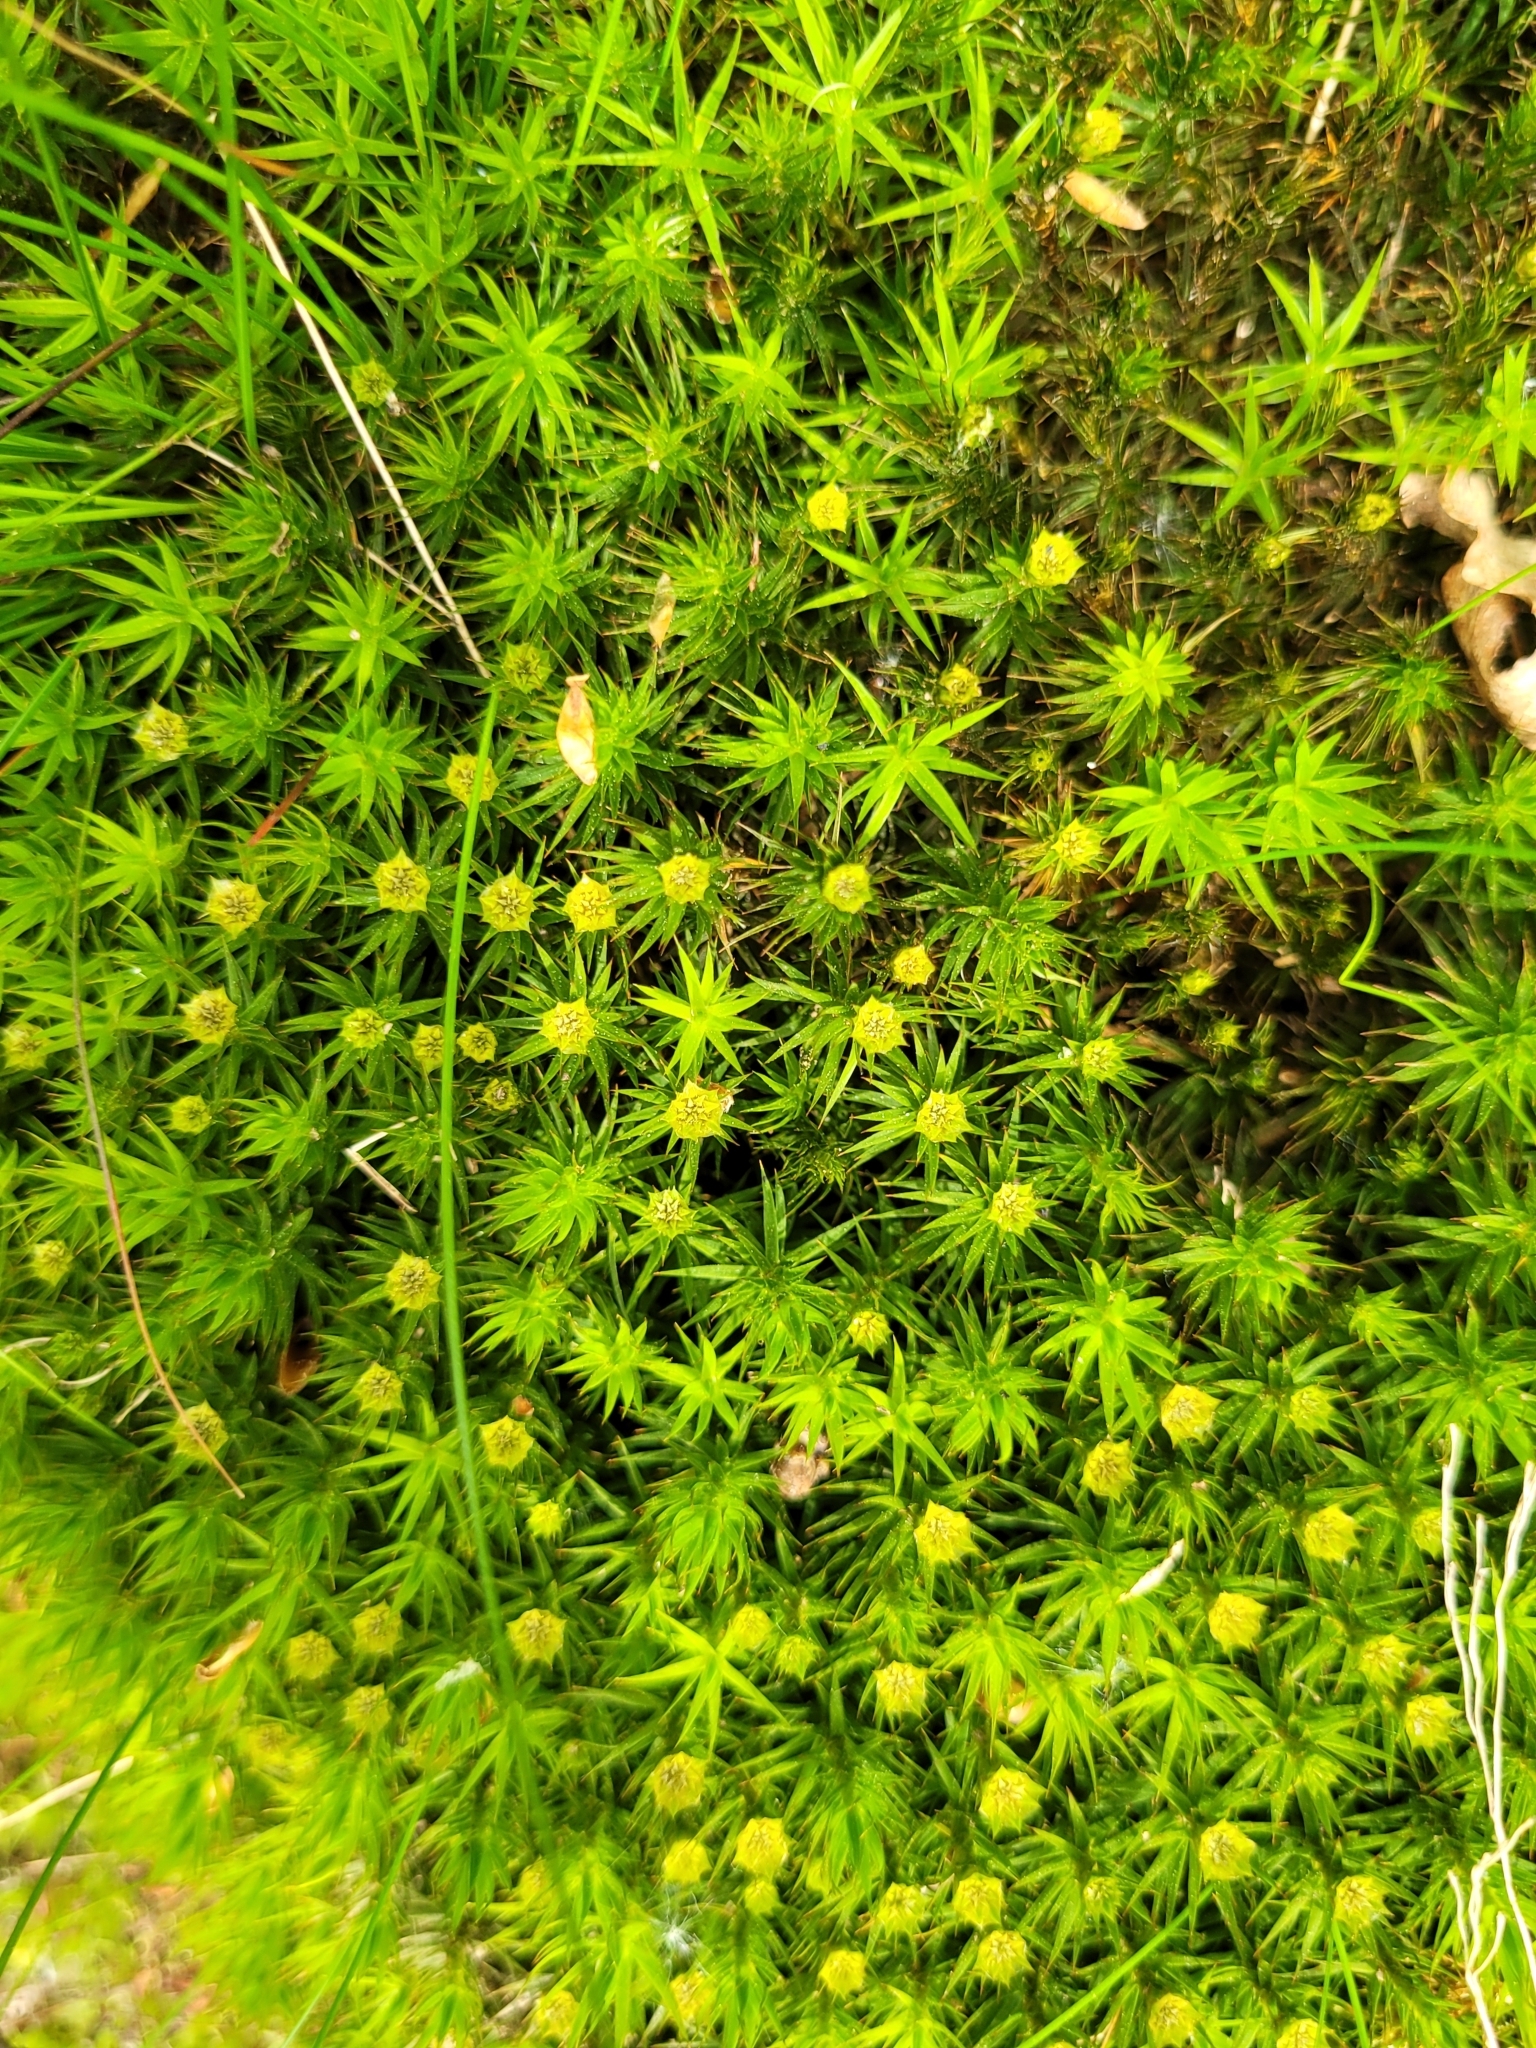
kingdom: Plantae
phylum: Bryophyta
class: Polytrichopsida
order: Polytrichales
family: Polytrichaceae
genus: Polytrichum
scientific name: Polytrichum formosum
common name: Bank haircap moss
